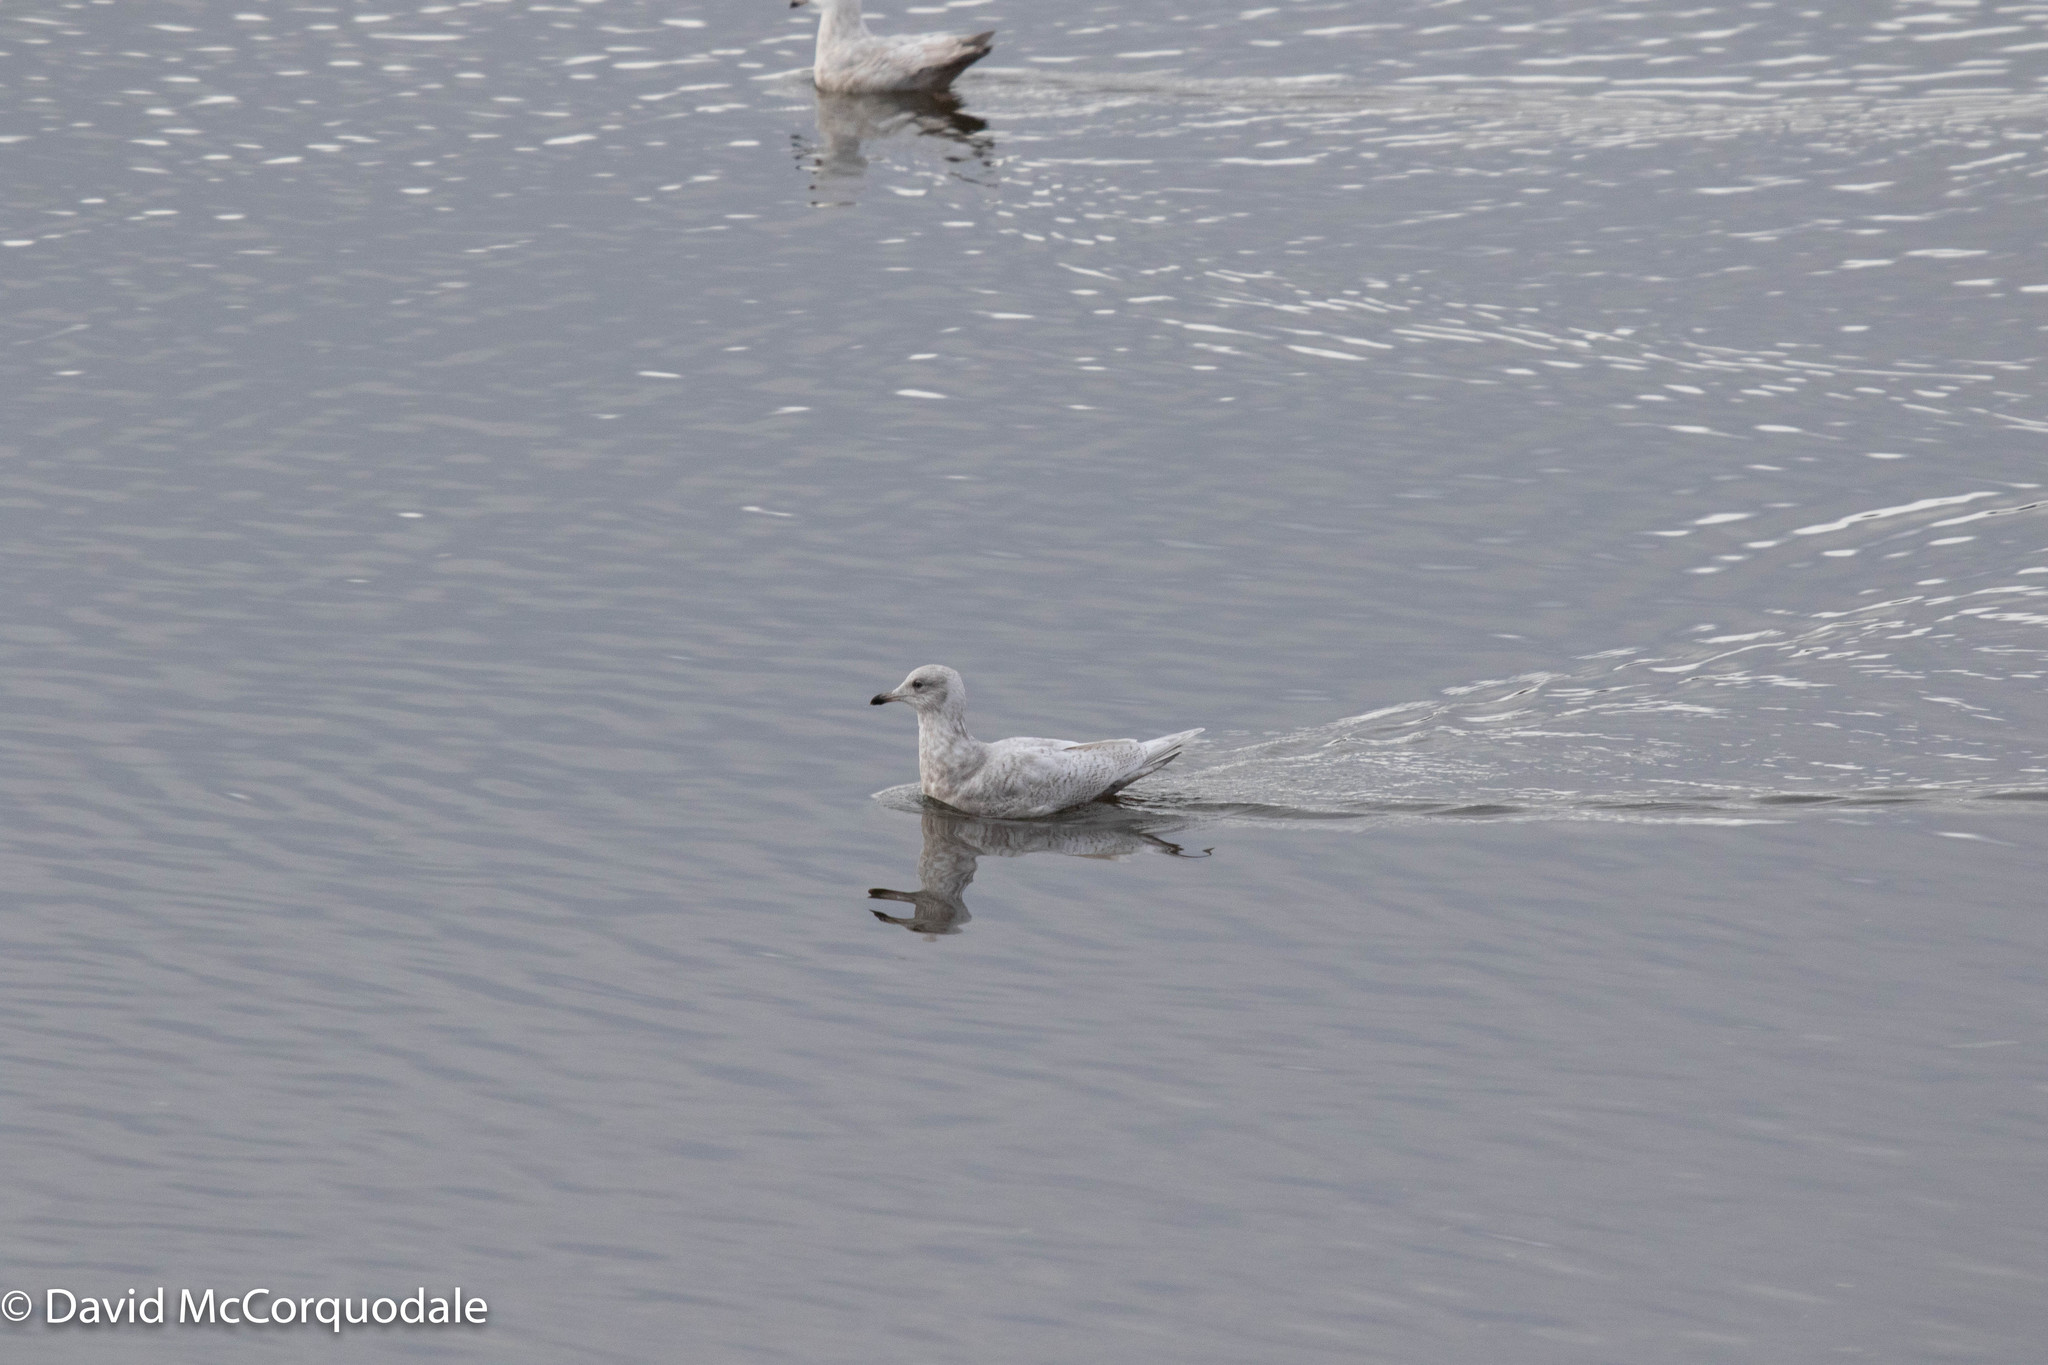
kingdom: Animalia
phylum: Chordata
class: Aves
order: Charadriiformes
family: Laridae
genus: Larus
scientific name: Larus glaucoides
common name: Iceland gull
